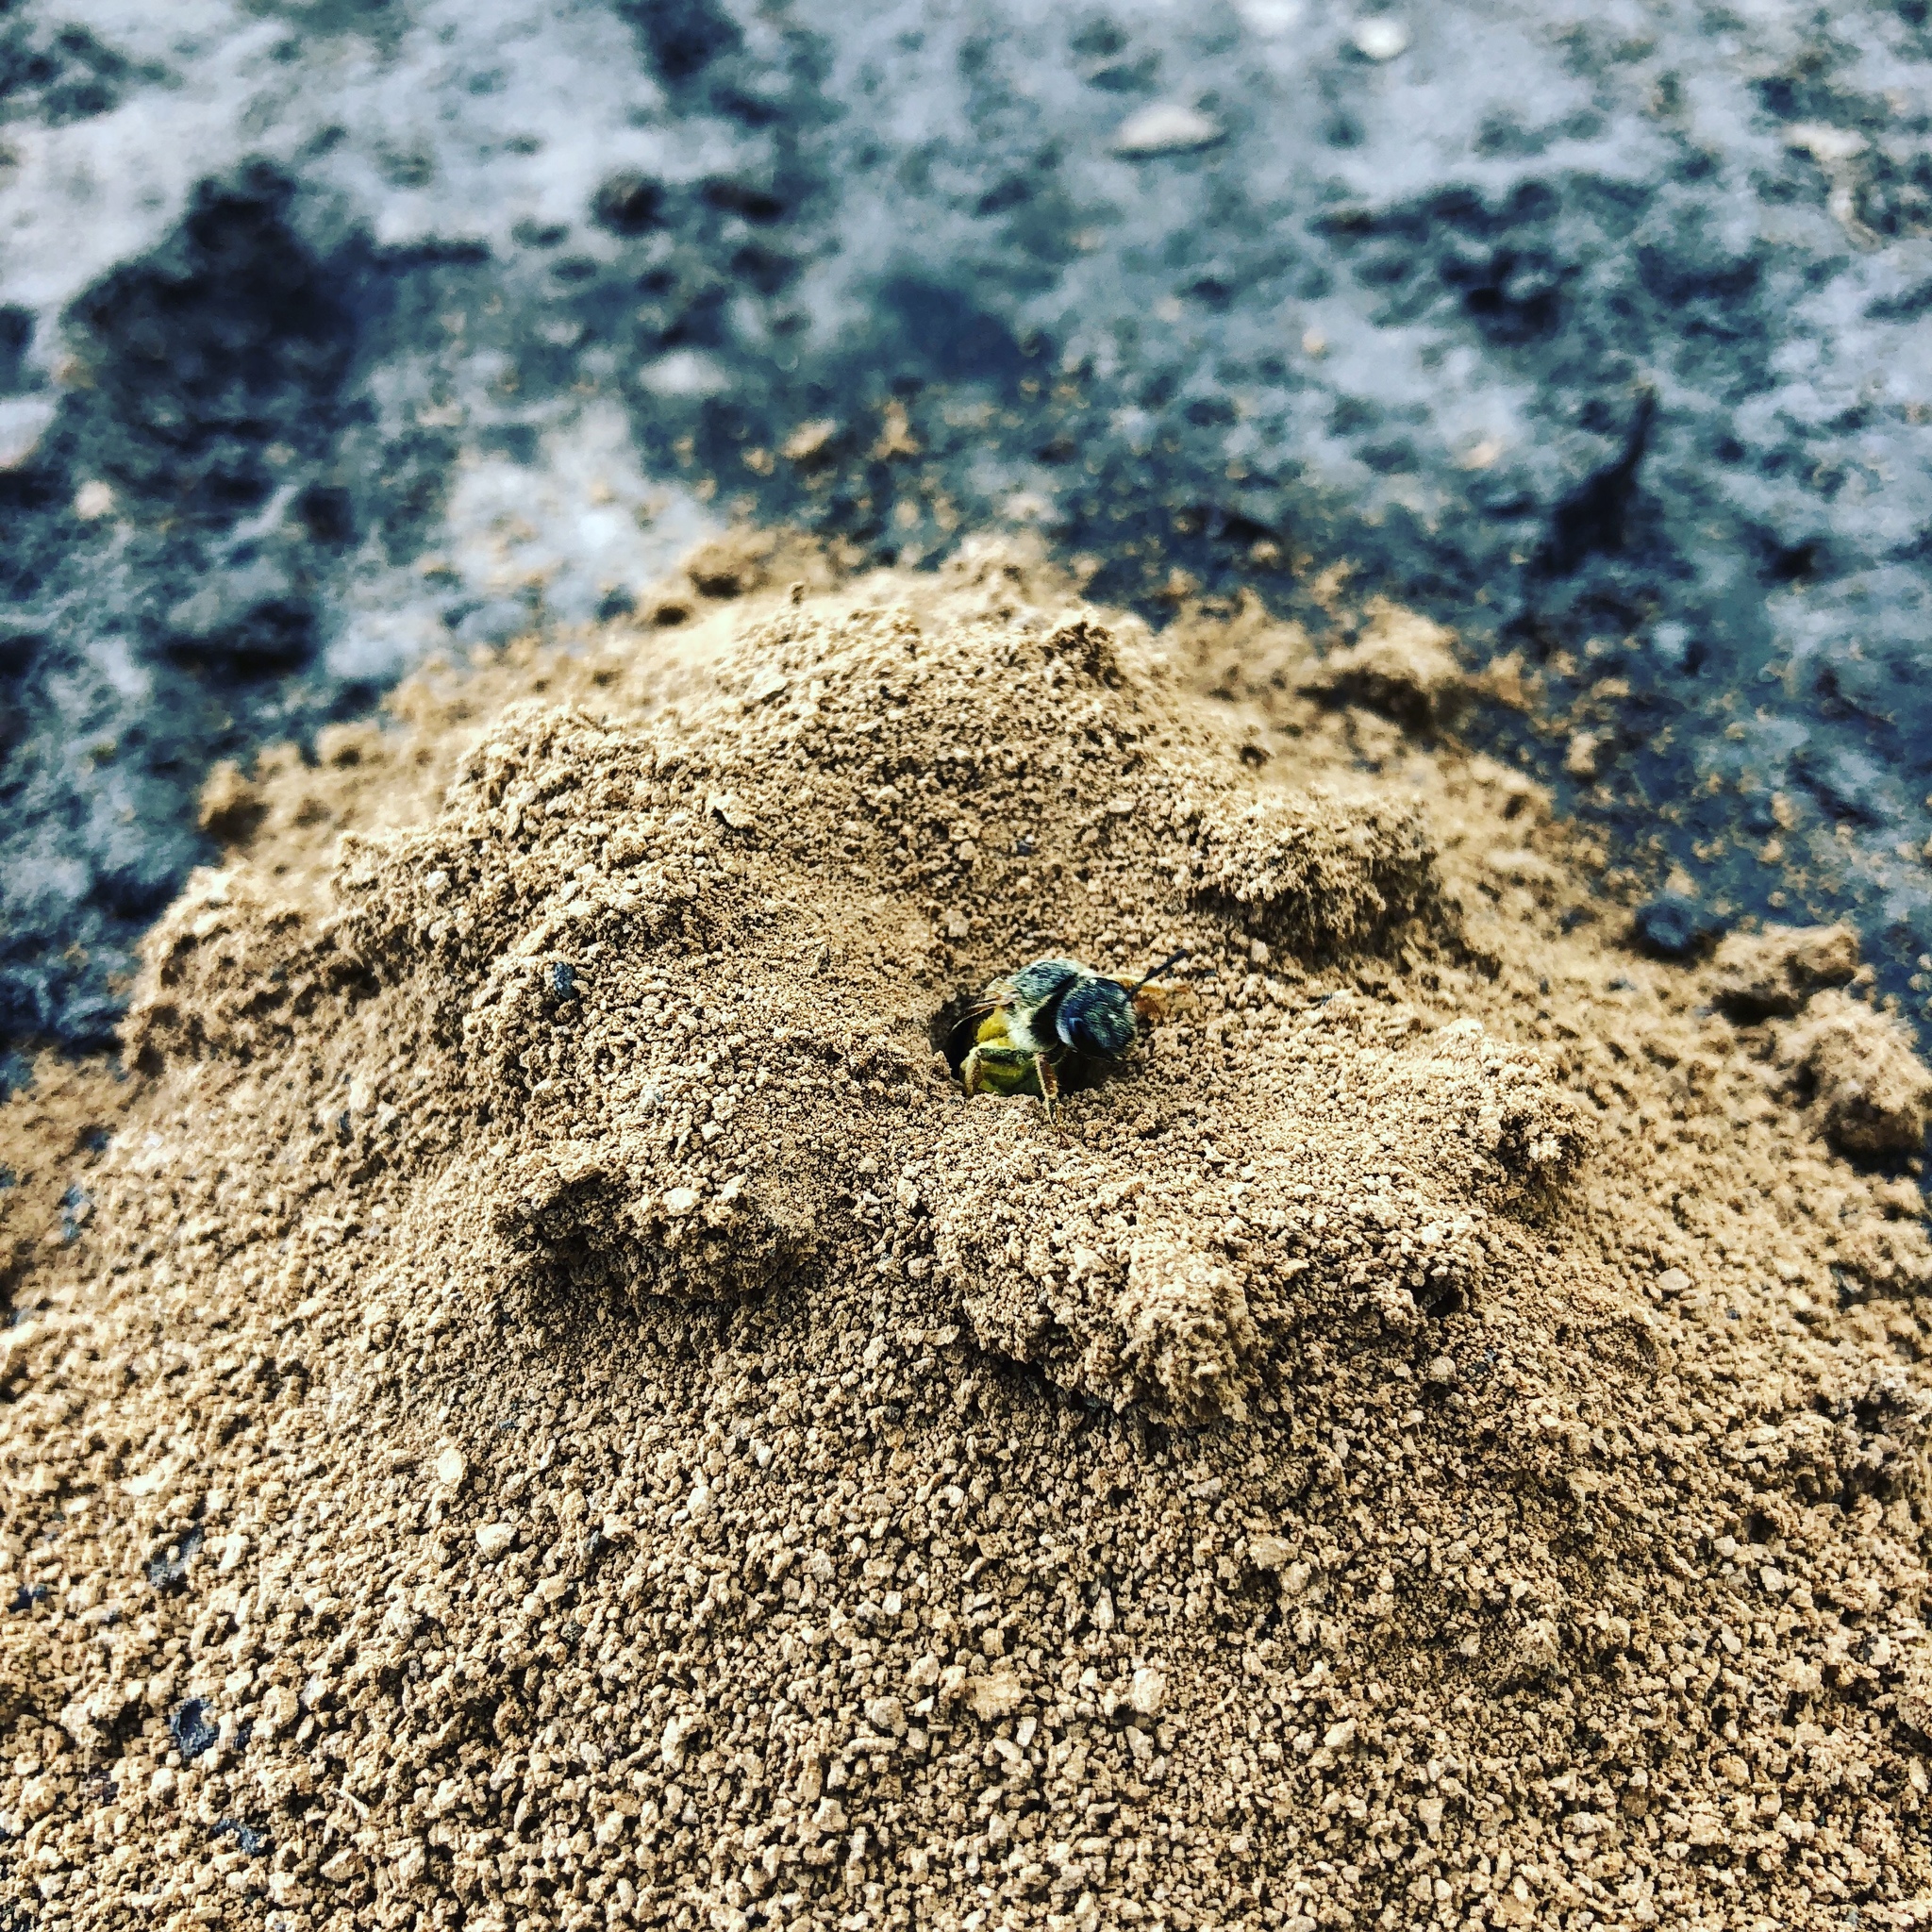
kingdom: Animalia
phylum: Arthropoda
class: Insecta
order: Hymenoptera
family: Halictidae
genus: Halictus
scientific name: Halictus parallelus
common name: Parallel-striped sweat bee
